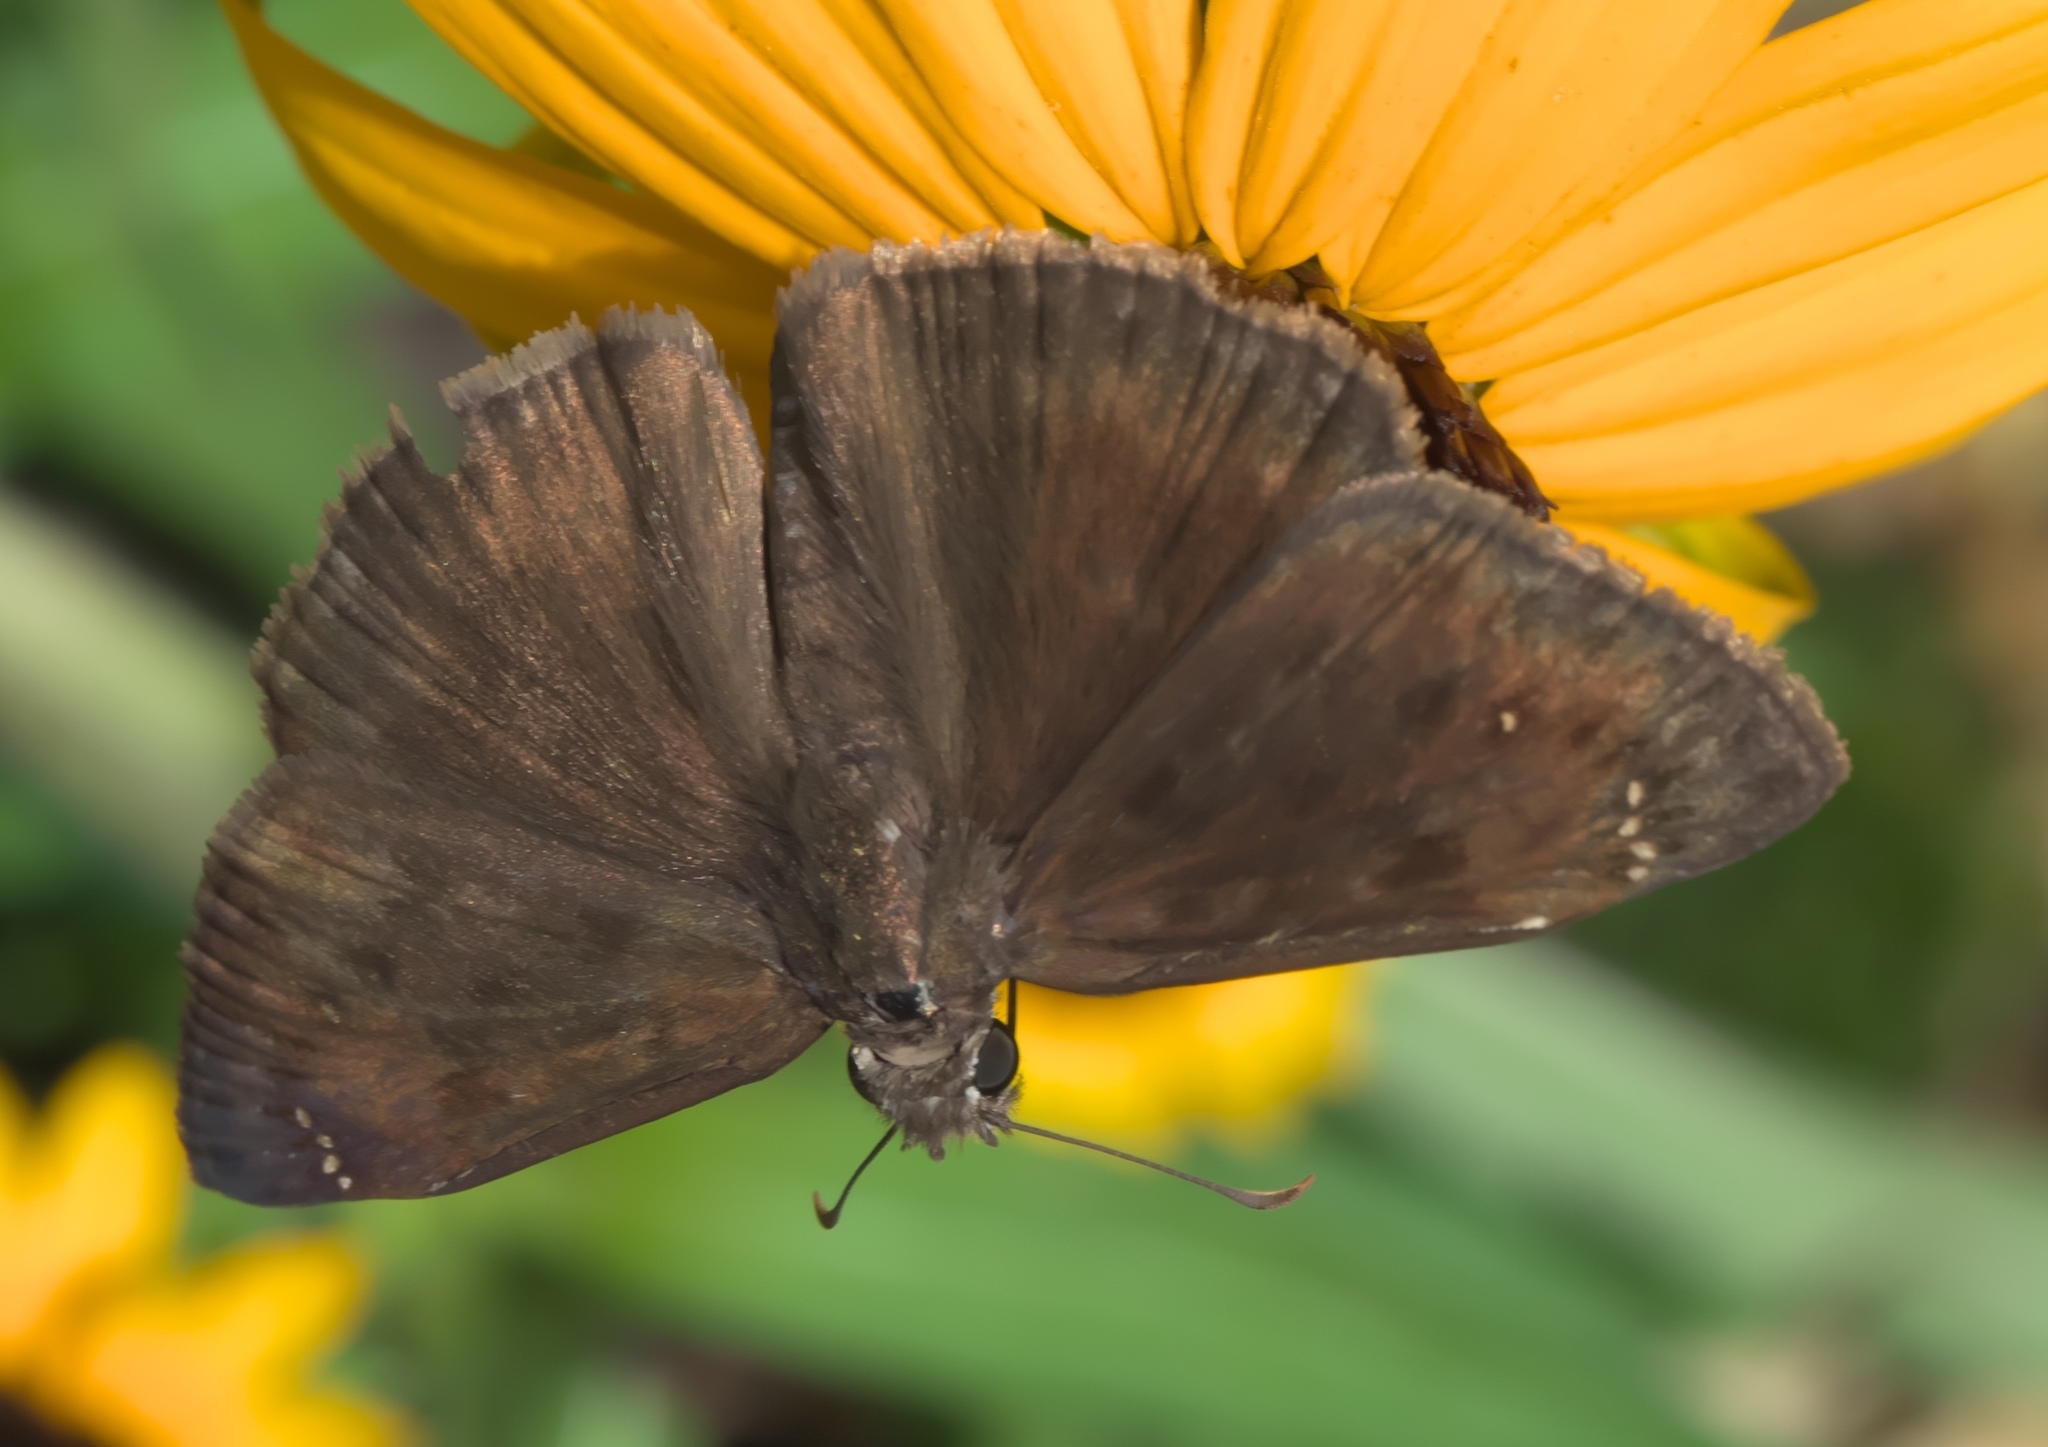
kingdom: Animalia
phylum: Arthropoda
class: Insecta
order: Lepidoptera
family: Hesperiidae
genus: Erynnis
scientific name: Erynnis horatius
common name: Horace's duskywing
